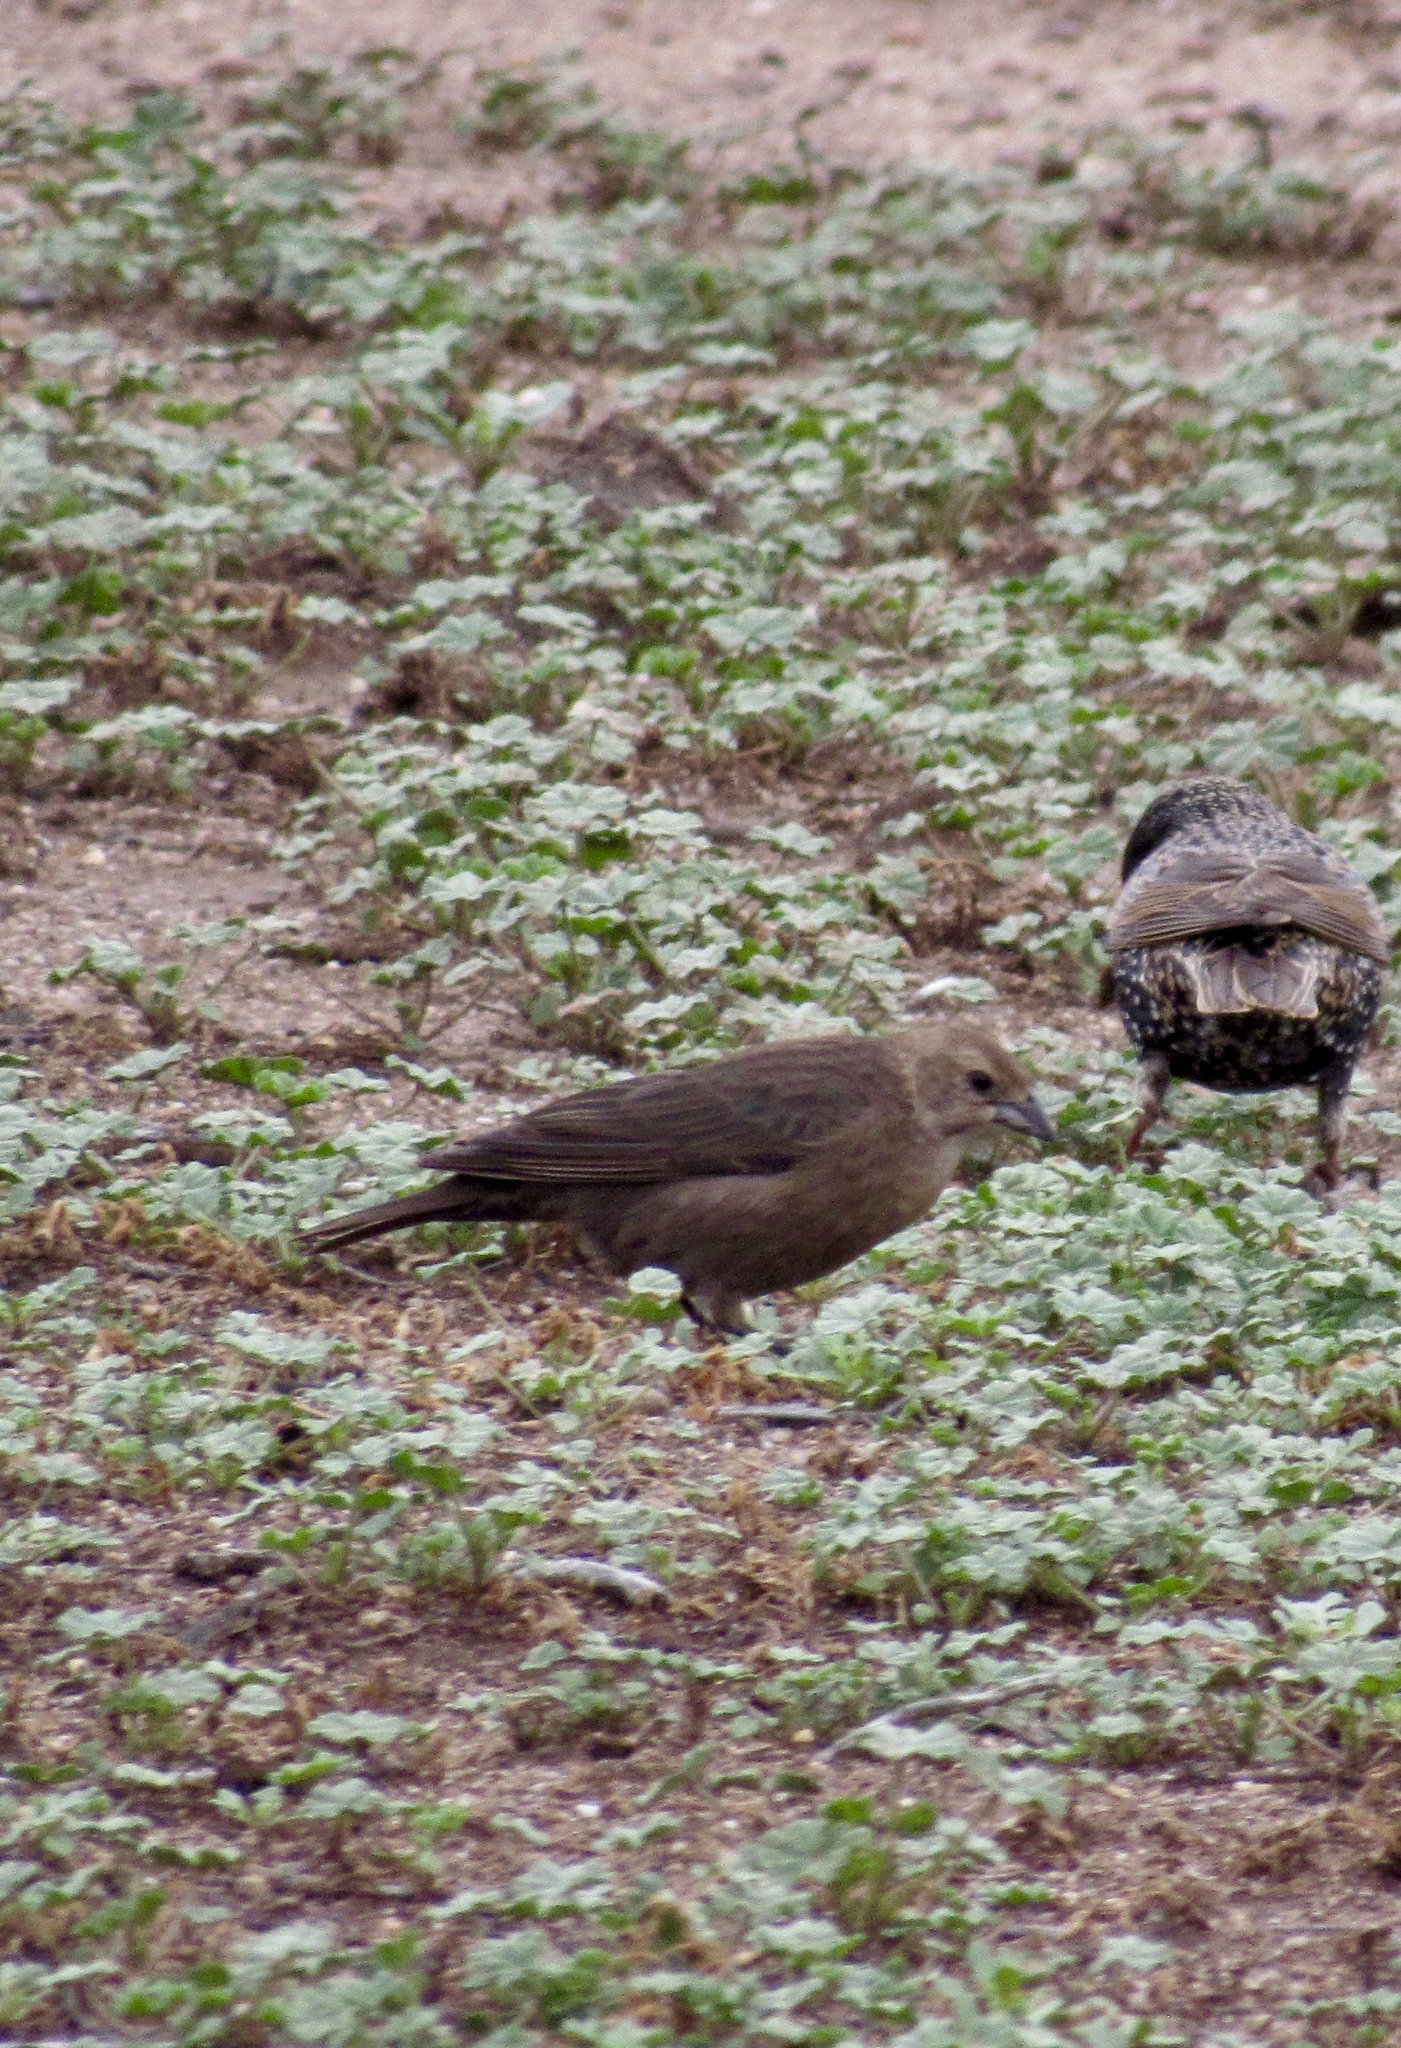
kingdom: Animalia
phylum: Chordata
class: Aves
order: Passeriformes
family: Icteridae
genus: Molothrus
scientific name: Molothrus ater
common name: Brown-headed cowbird
